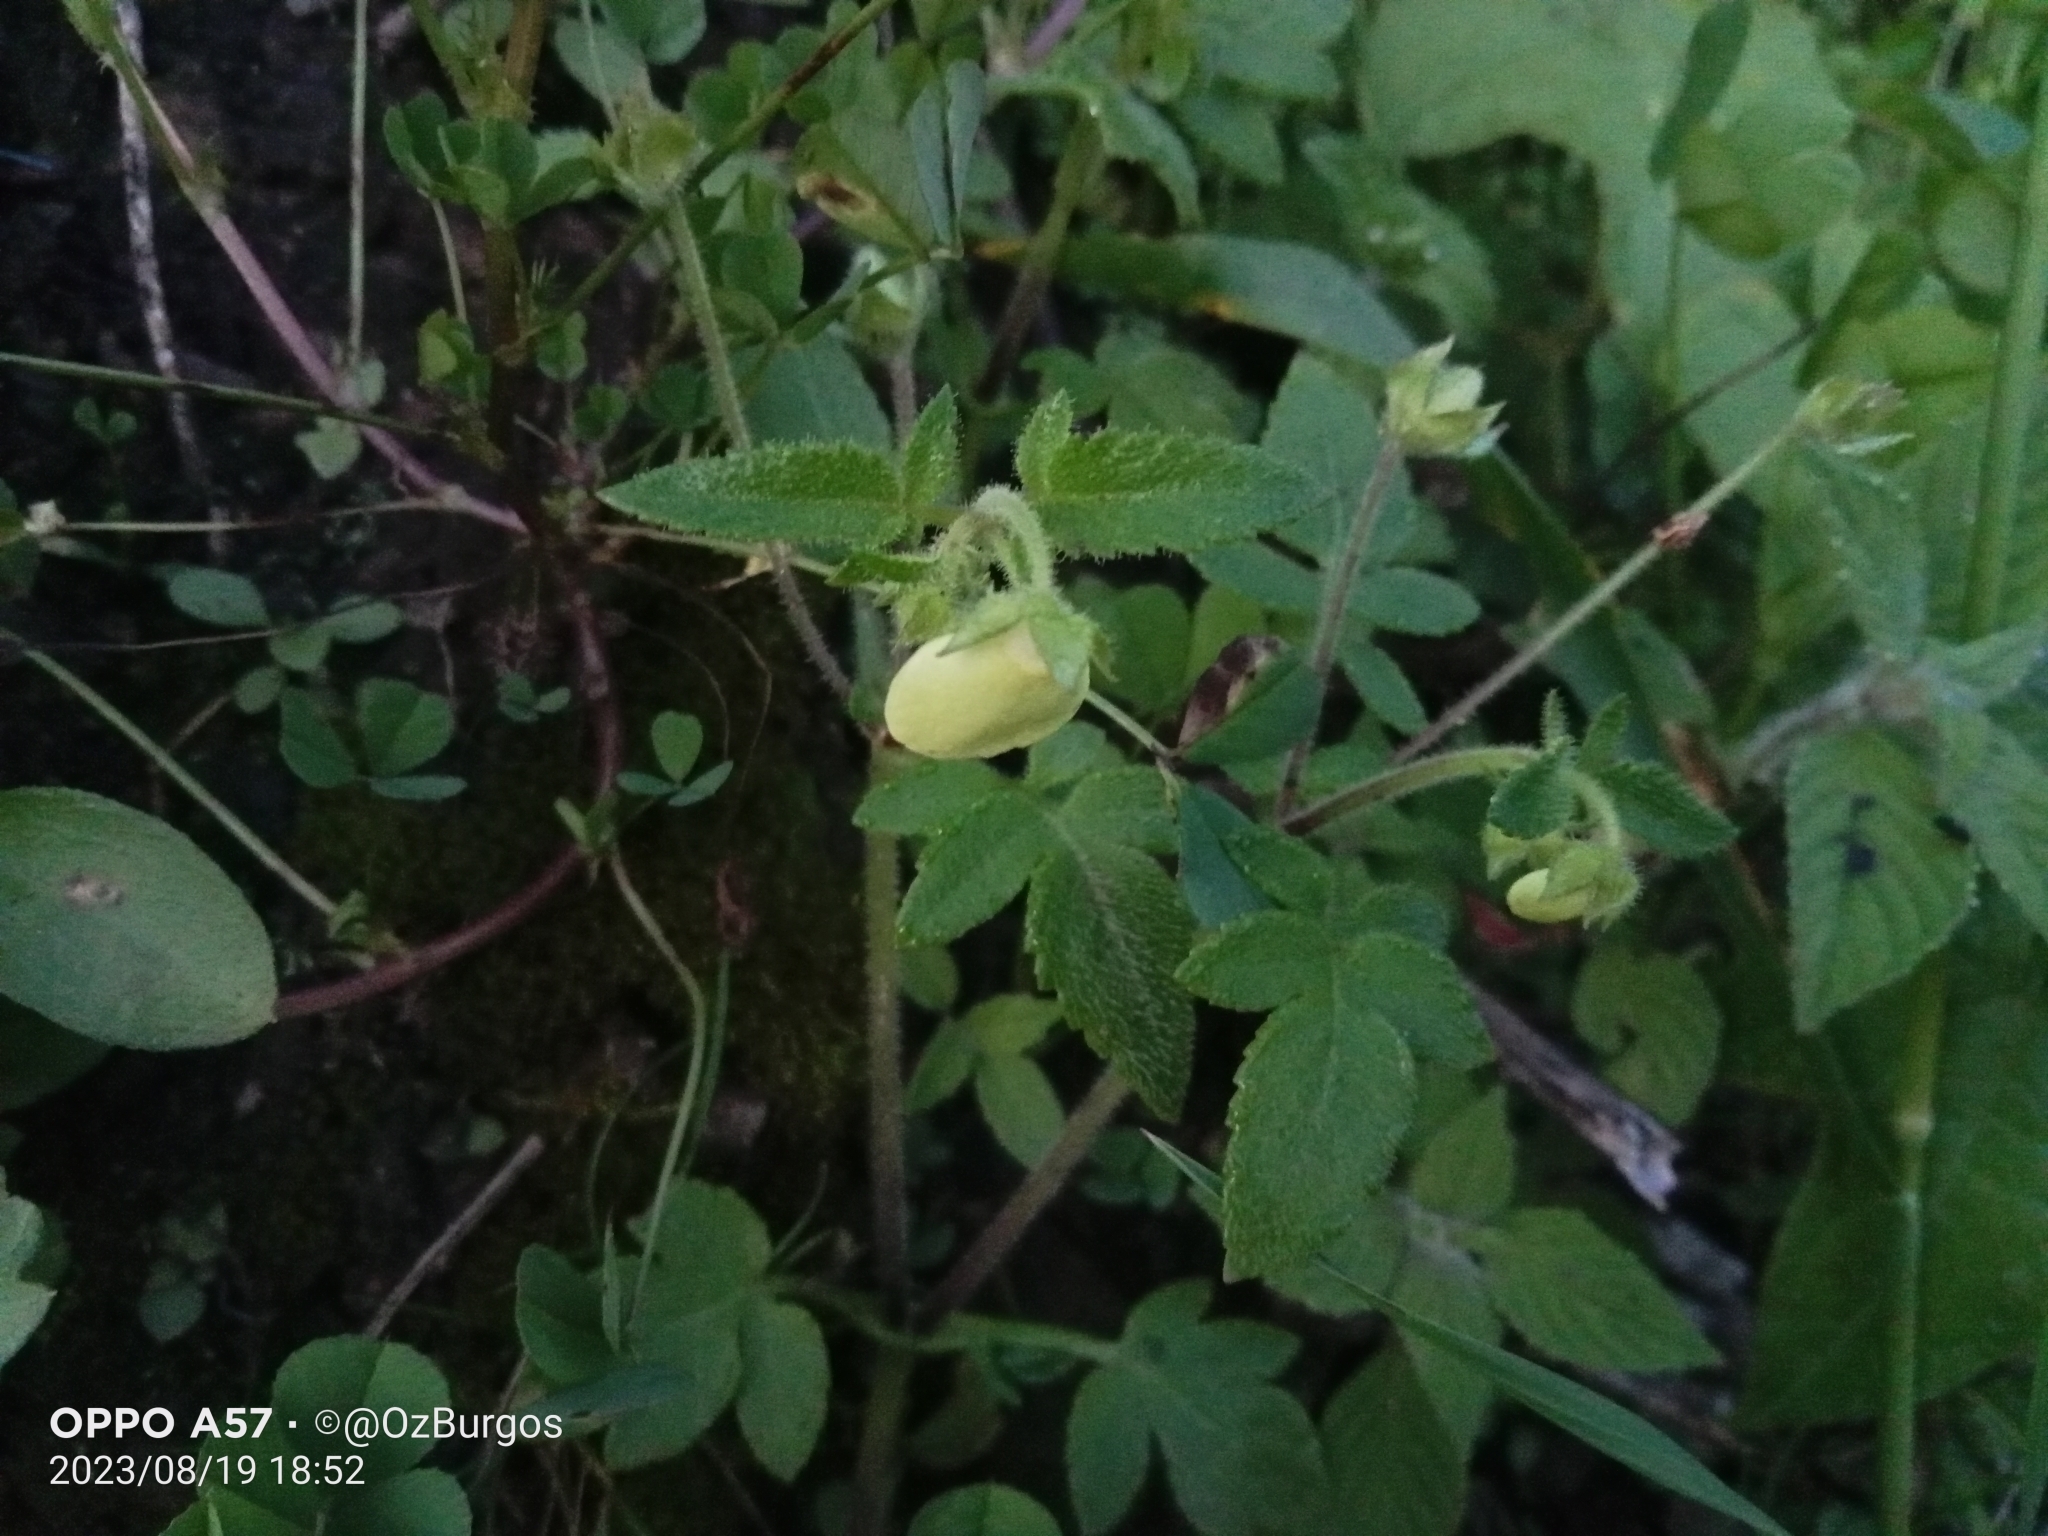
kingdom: Plantae
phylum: Tracheophyta
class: Magnoliopsida
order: Lamiales
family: Calceolariaceae
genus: Calceolaria
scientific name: Calceolaria tripartita
